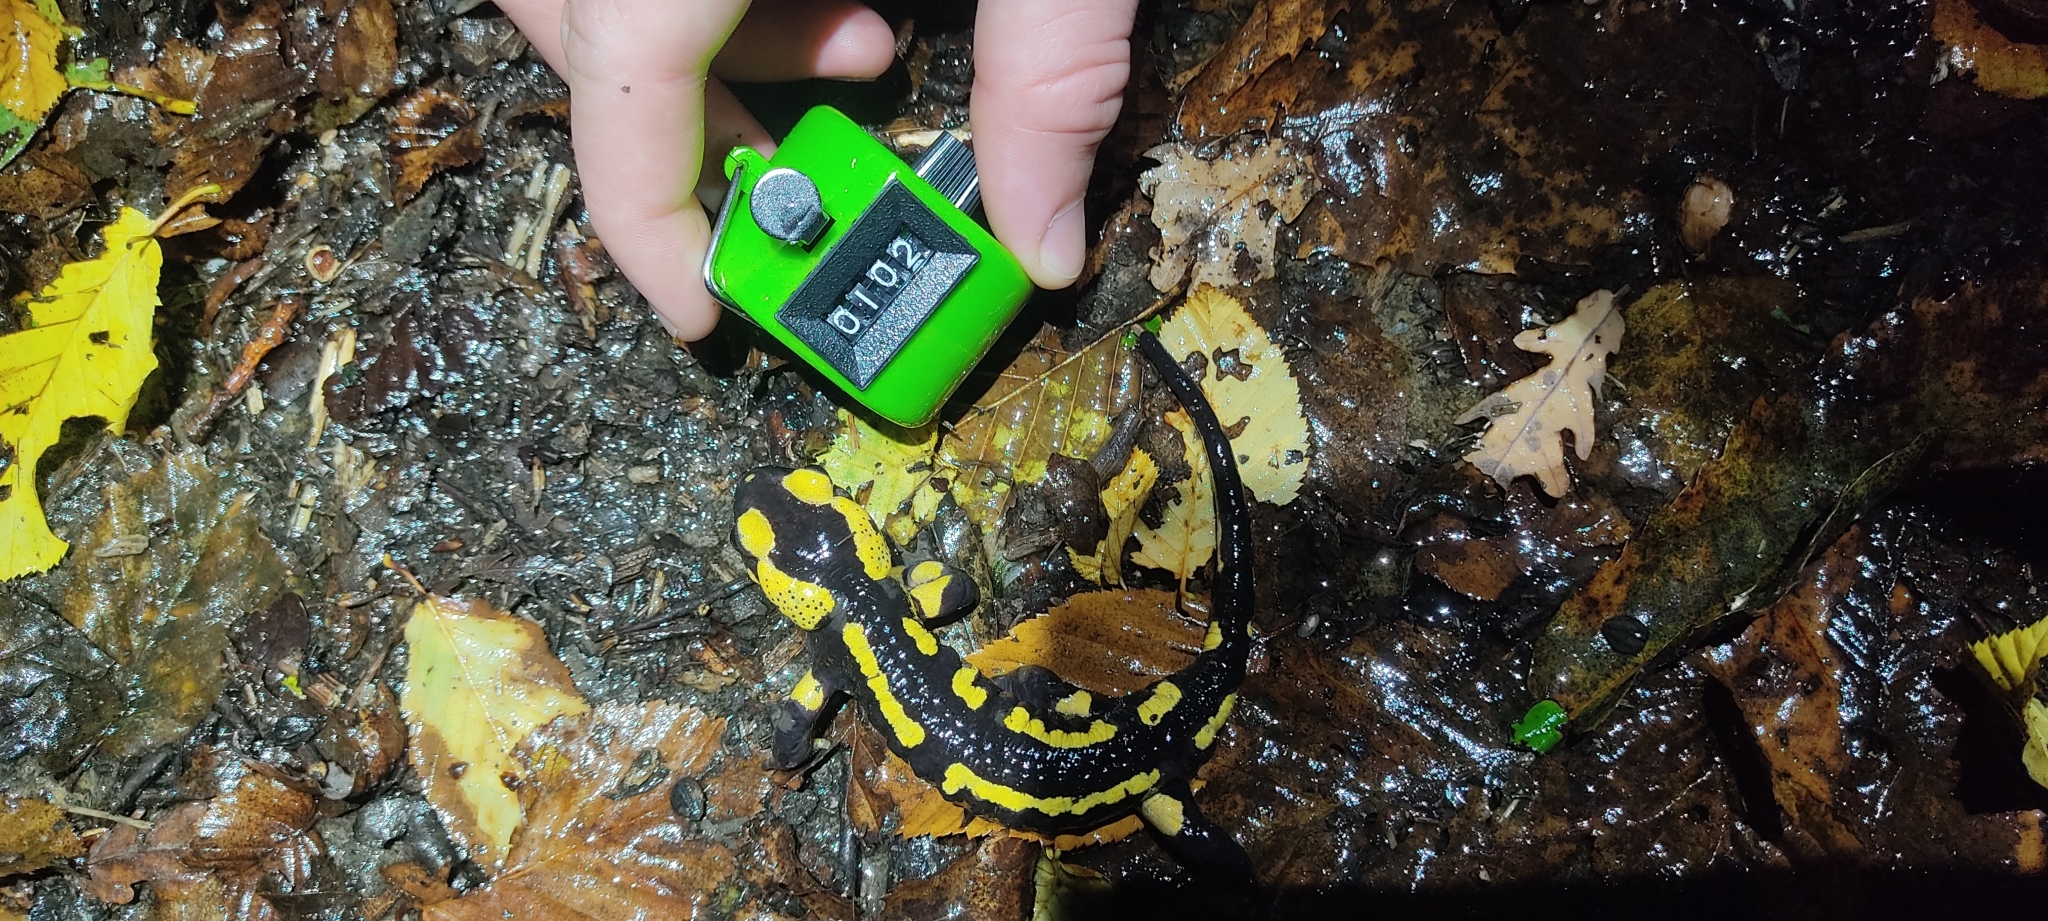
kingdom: Animalia
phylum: Chordata
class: Amphibia
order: Caudata
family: Salamandridae
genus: Salamandra
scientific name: Salamandra salamandra
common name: Fire salamander
